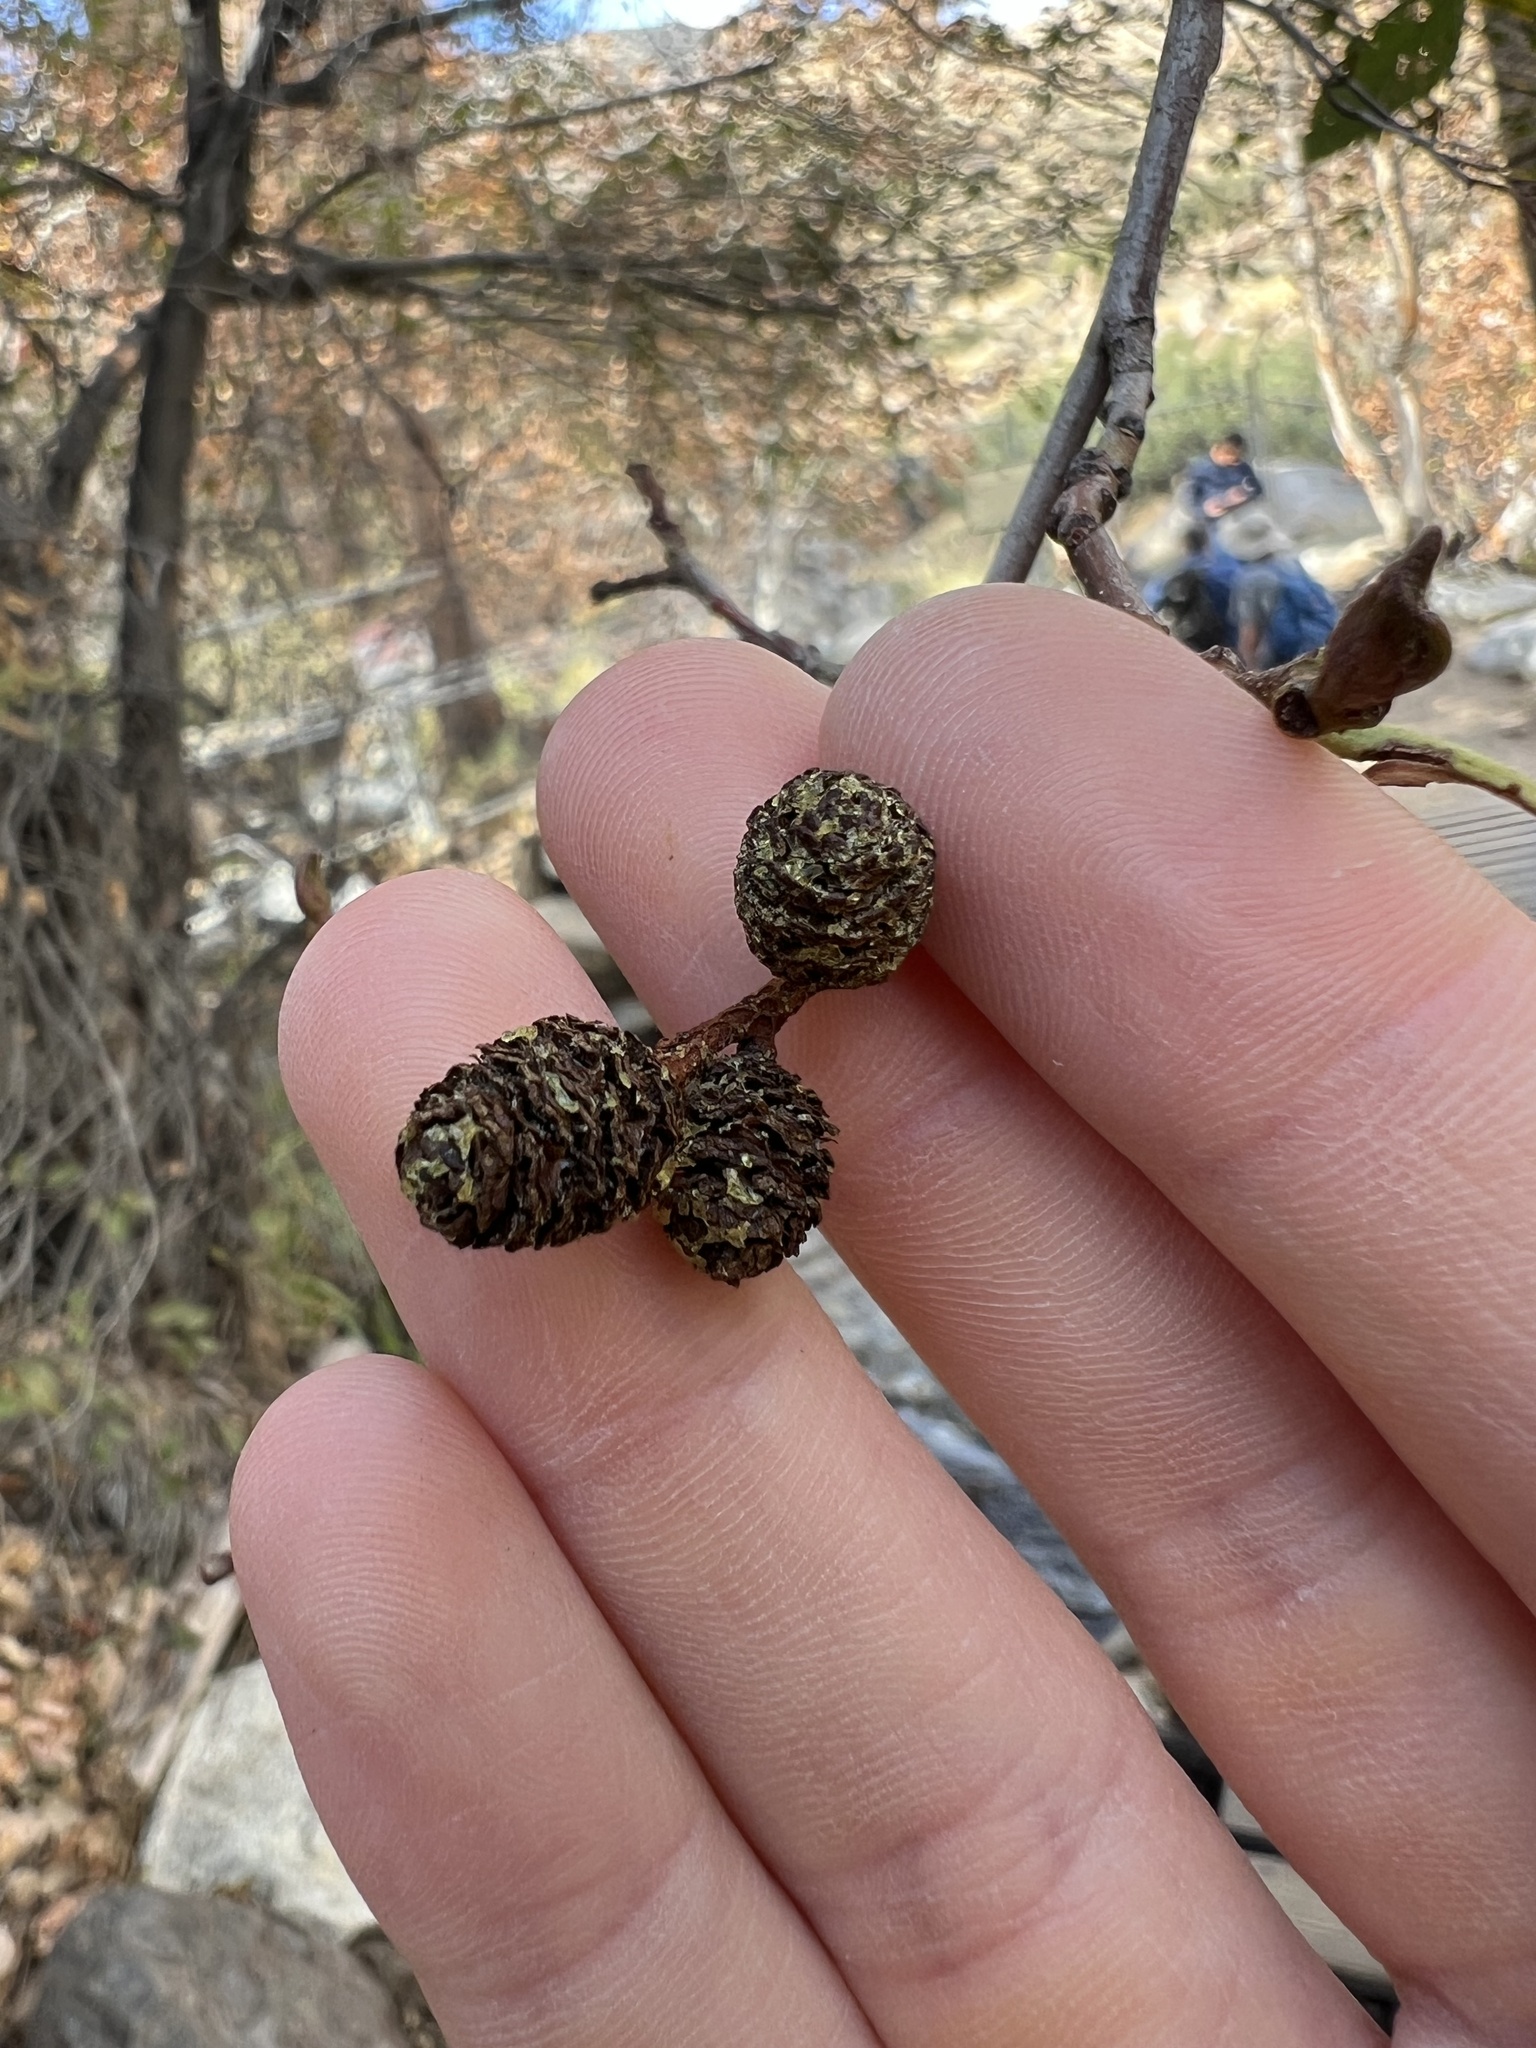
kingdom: Plantae
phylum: Tracheophyta
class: Magnoliopsida
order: Fagales
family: Betulaceae
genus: Alnus
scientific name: Alnus rhombifolia
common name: California alder
